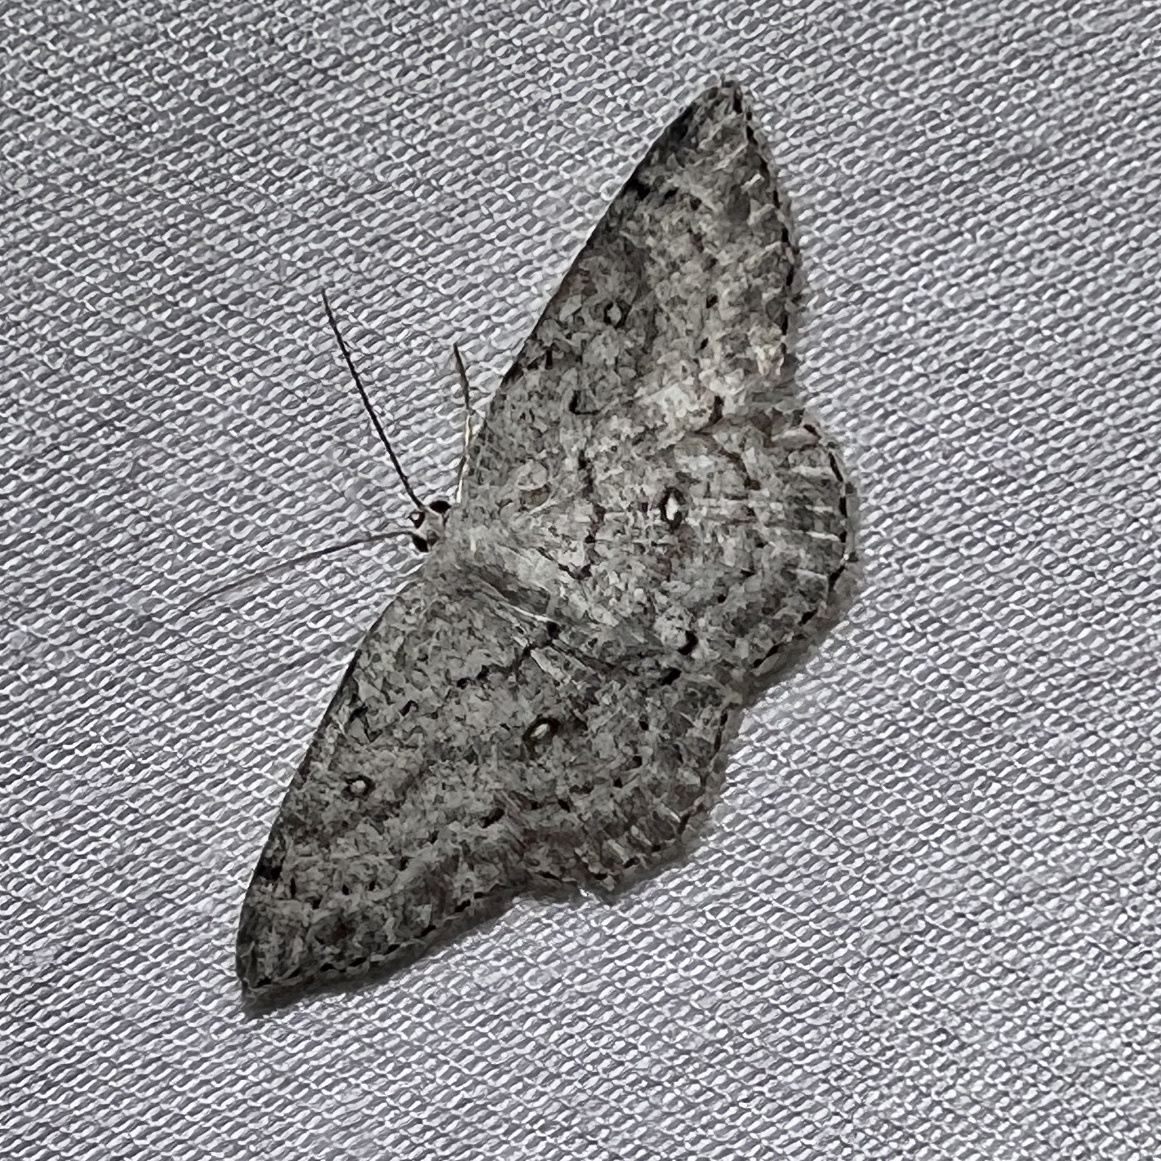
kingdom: Animalia
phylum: Arthropoda
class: Insecta
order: Lepidoptera
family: Geometridae
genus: Cyclophora
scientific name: Cyclophora pendulinaria
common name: Sweet fern geometer
